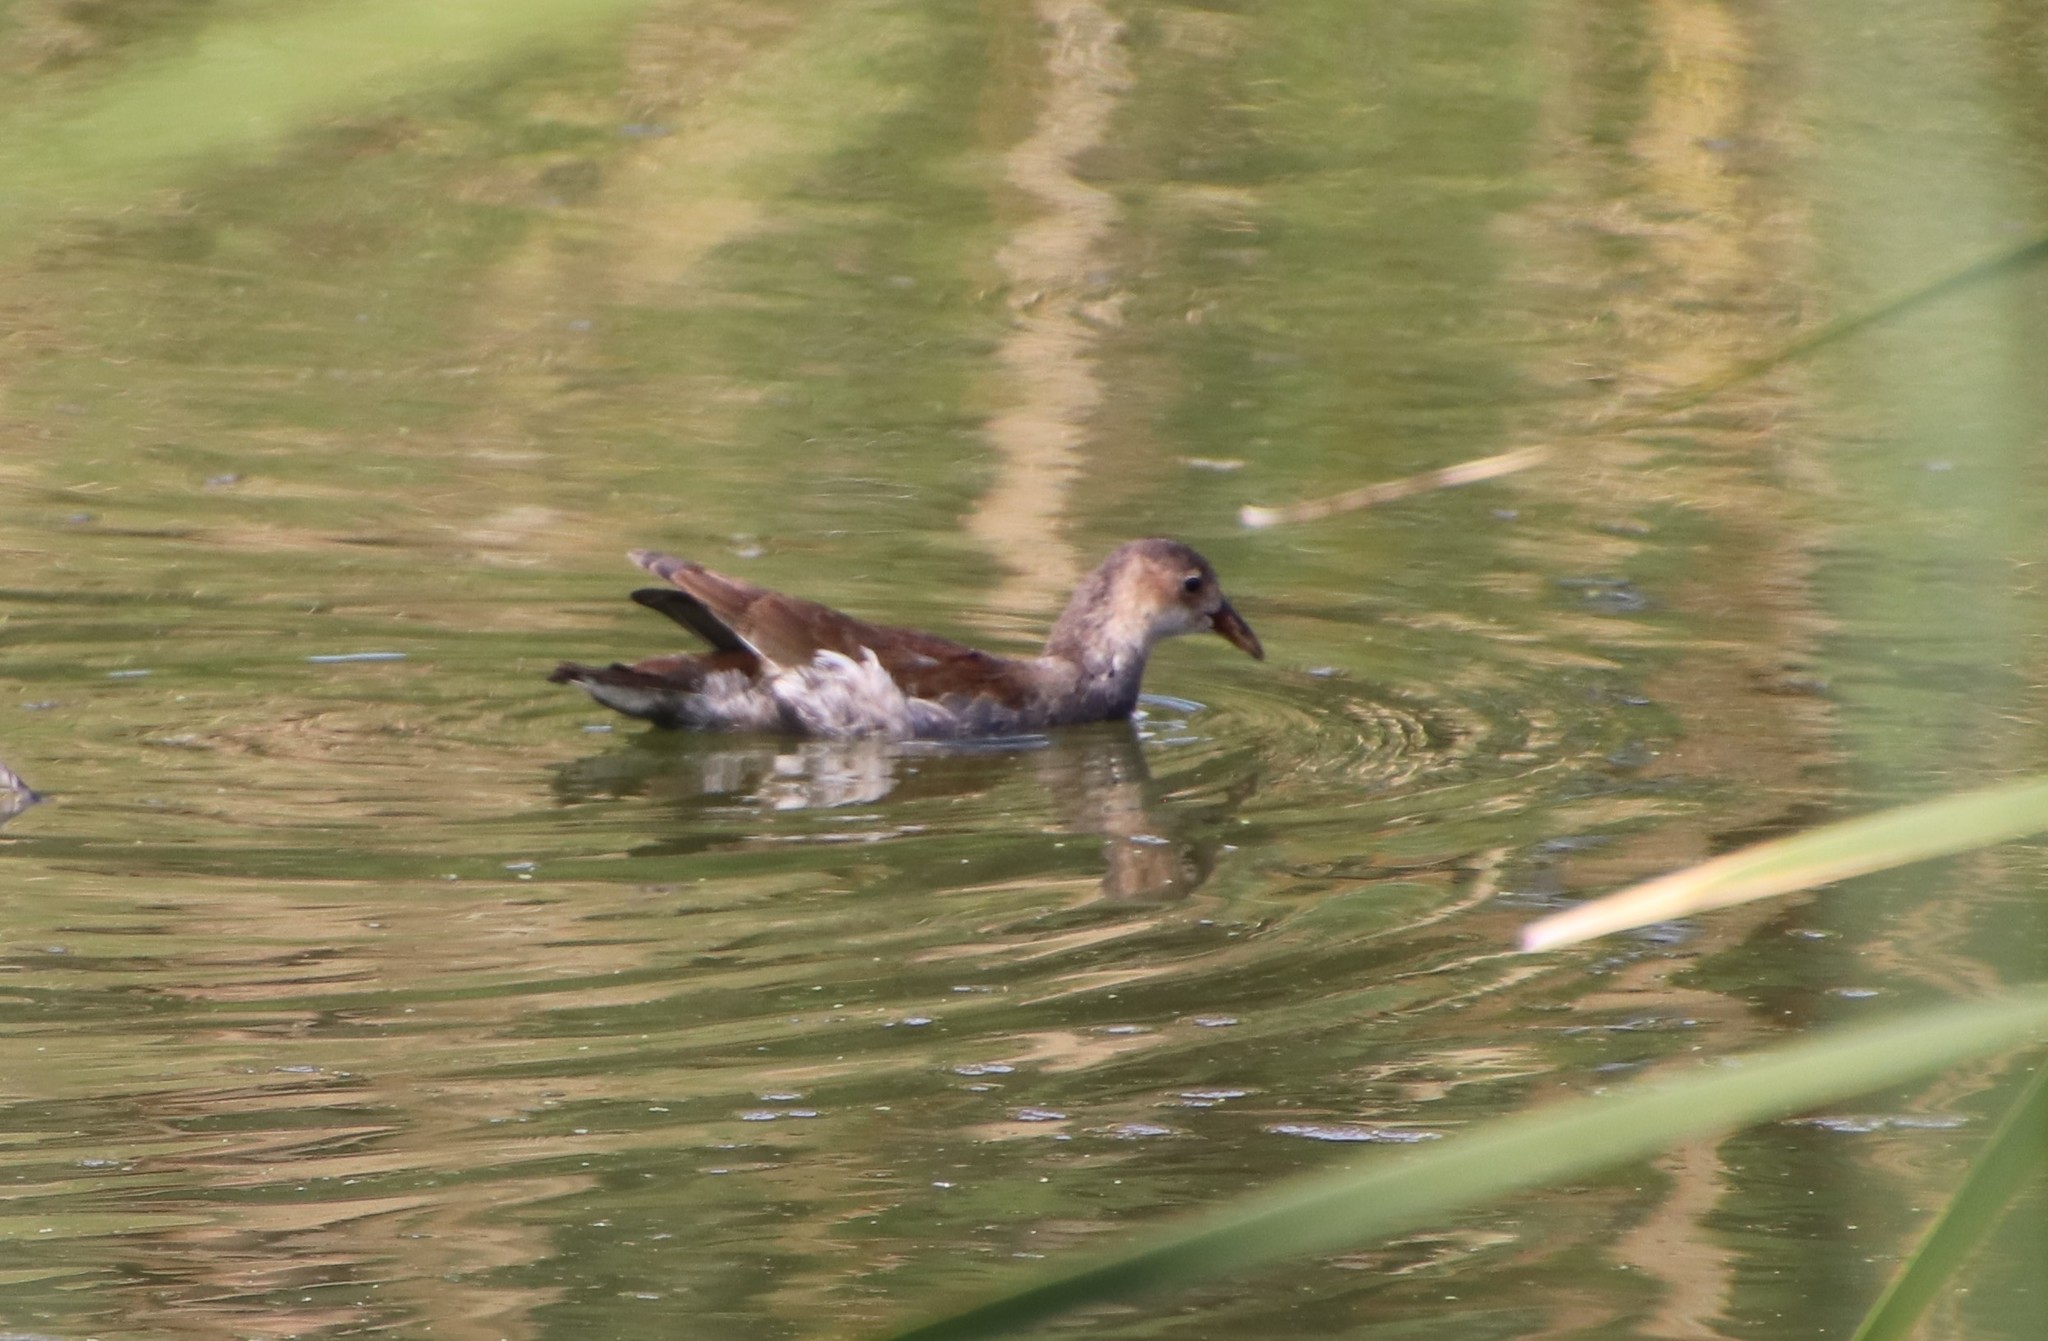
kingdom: Animalia
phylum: Chordata
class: Aves
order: Gruiformes
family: Rallidae
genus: Gallinula
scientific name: Gallinula chloropus
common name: Common moorhen
